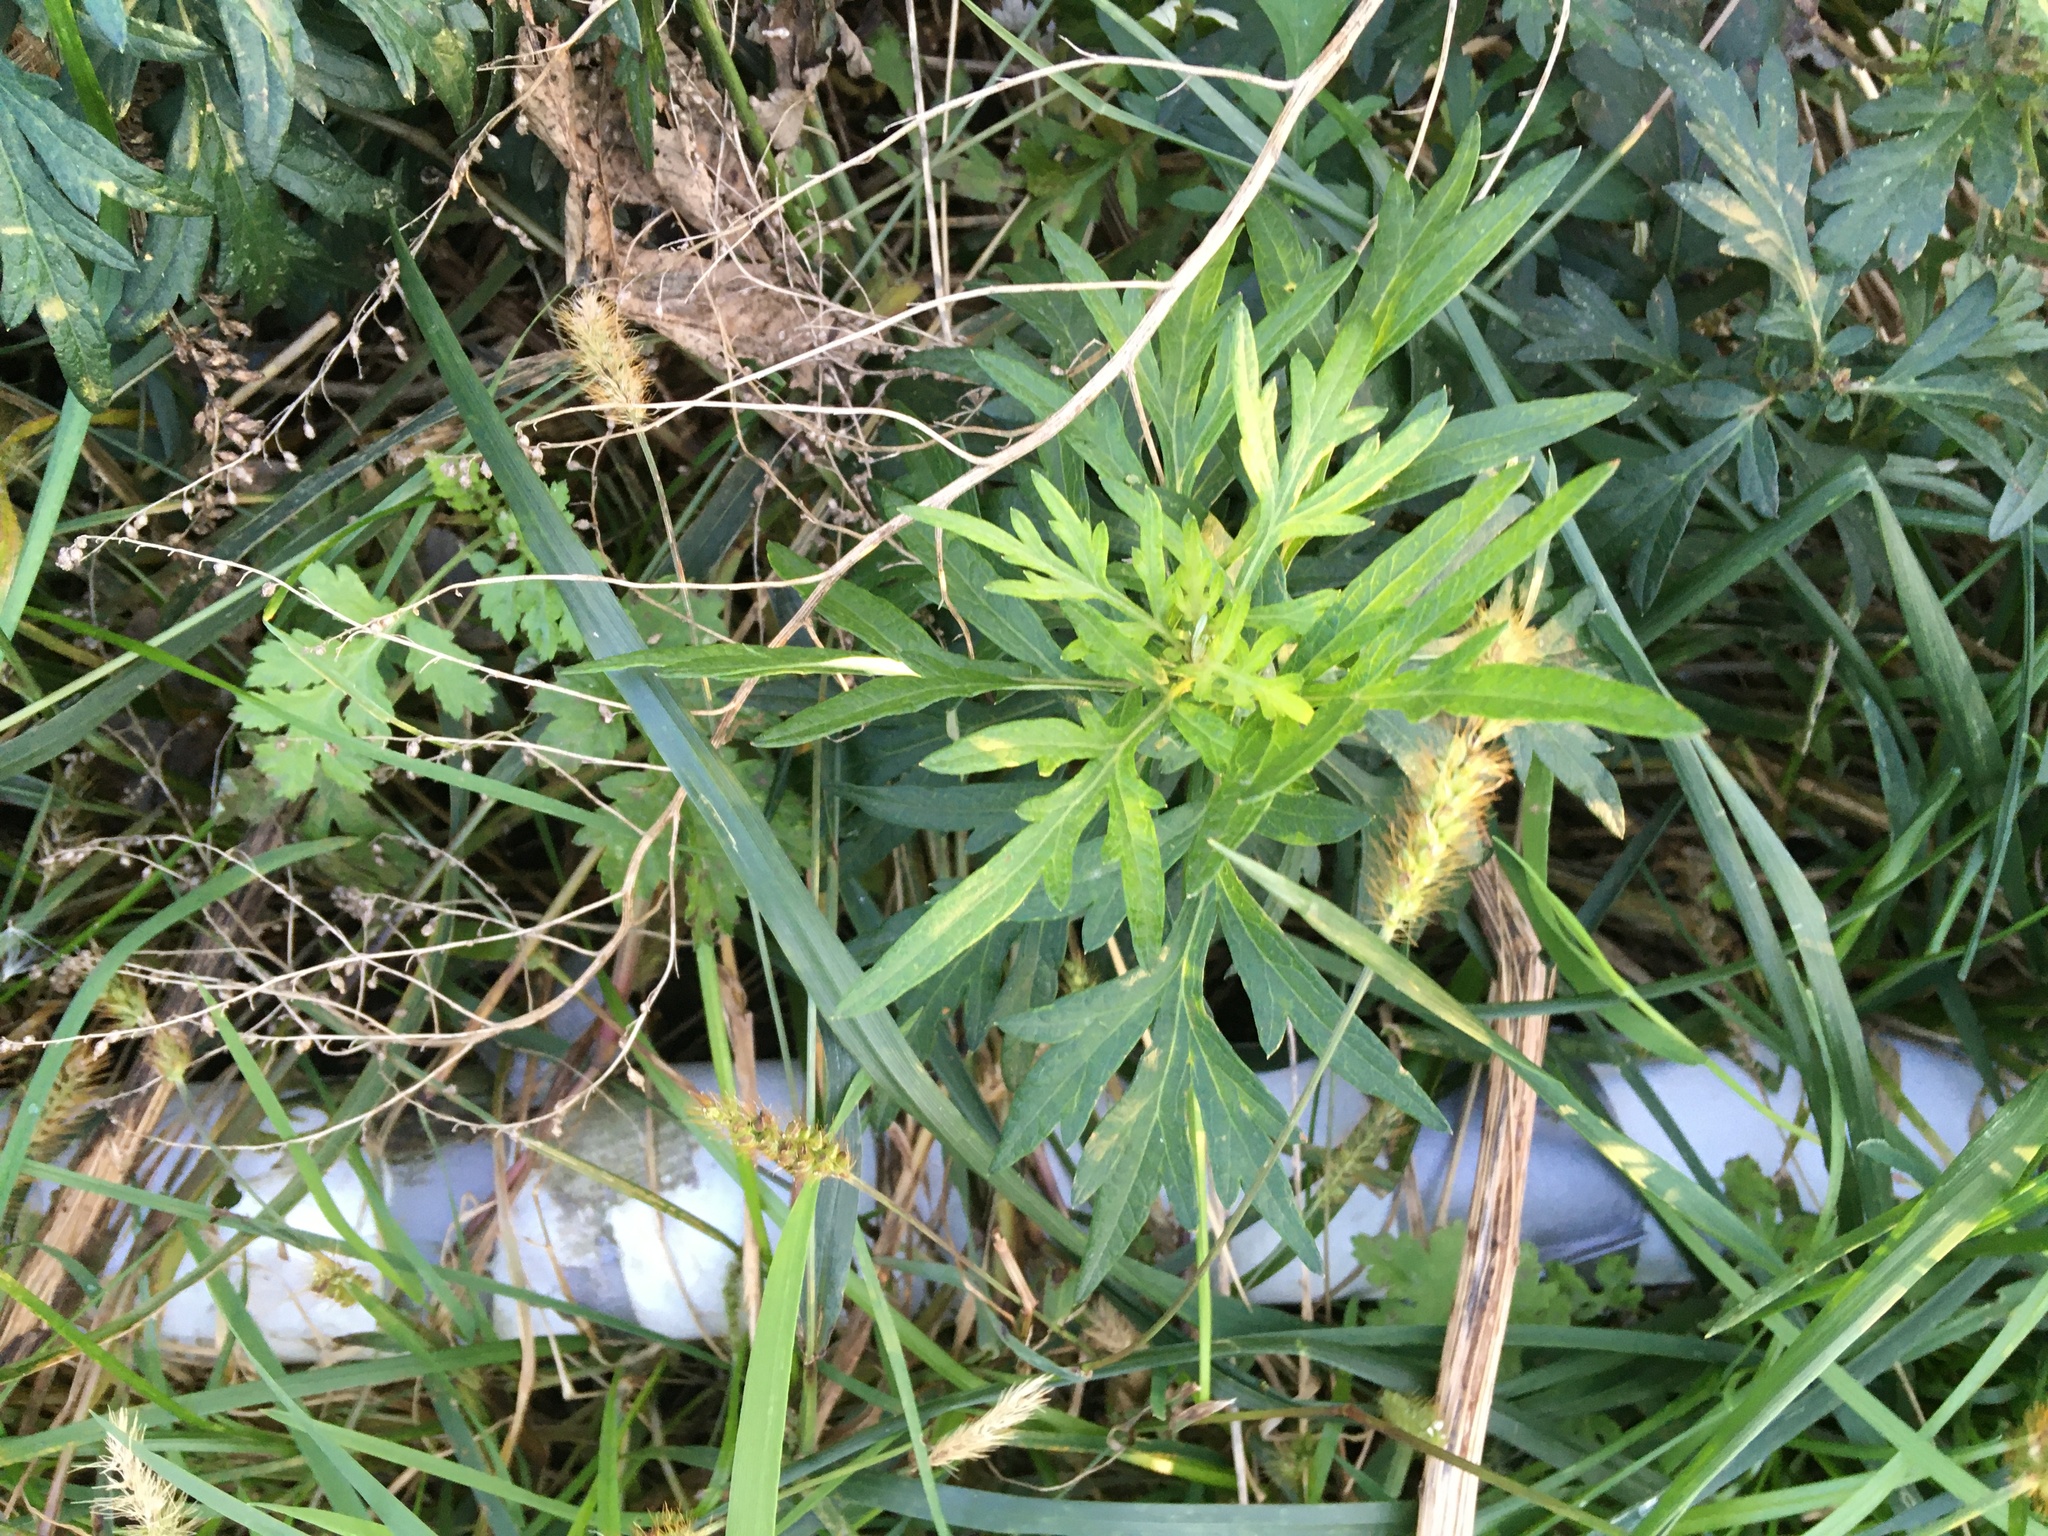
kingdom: Plantae
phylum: Tracheophyta
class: Magnoliopsida
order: Asterales
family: Asteraceae
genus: Artemisia
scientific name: Artemisia vulgaris
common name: Mugwort
